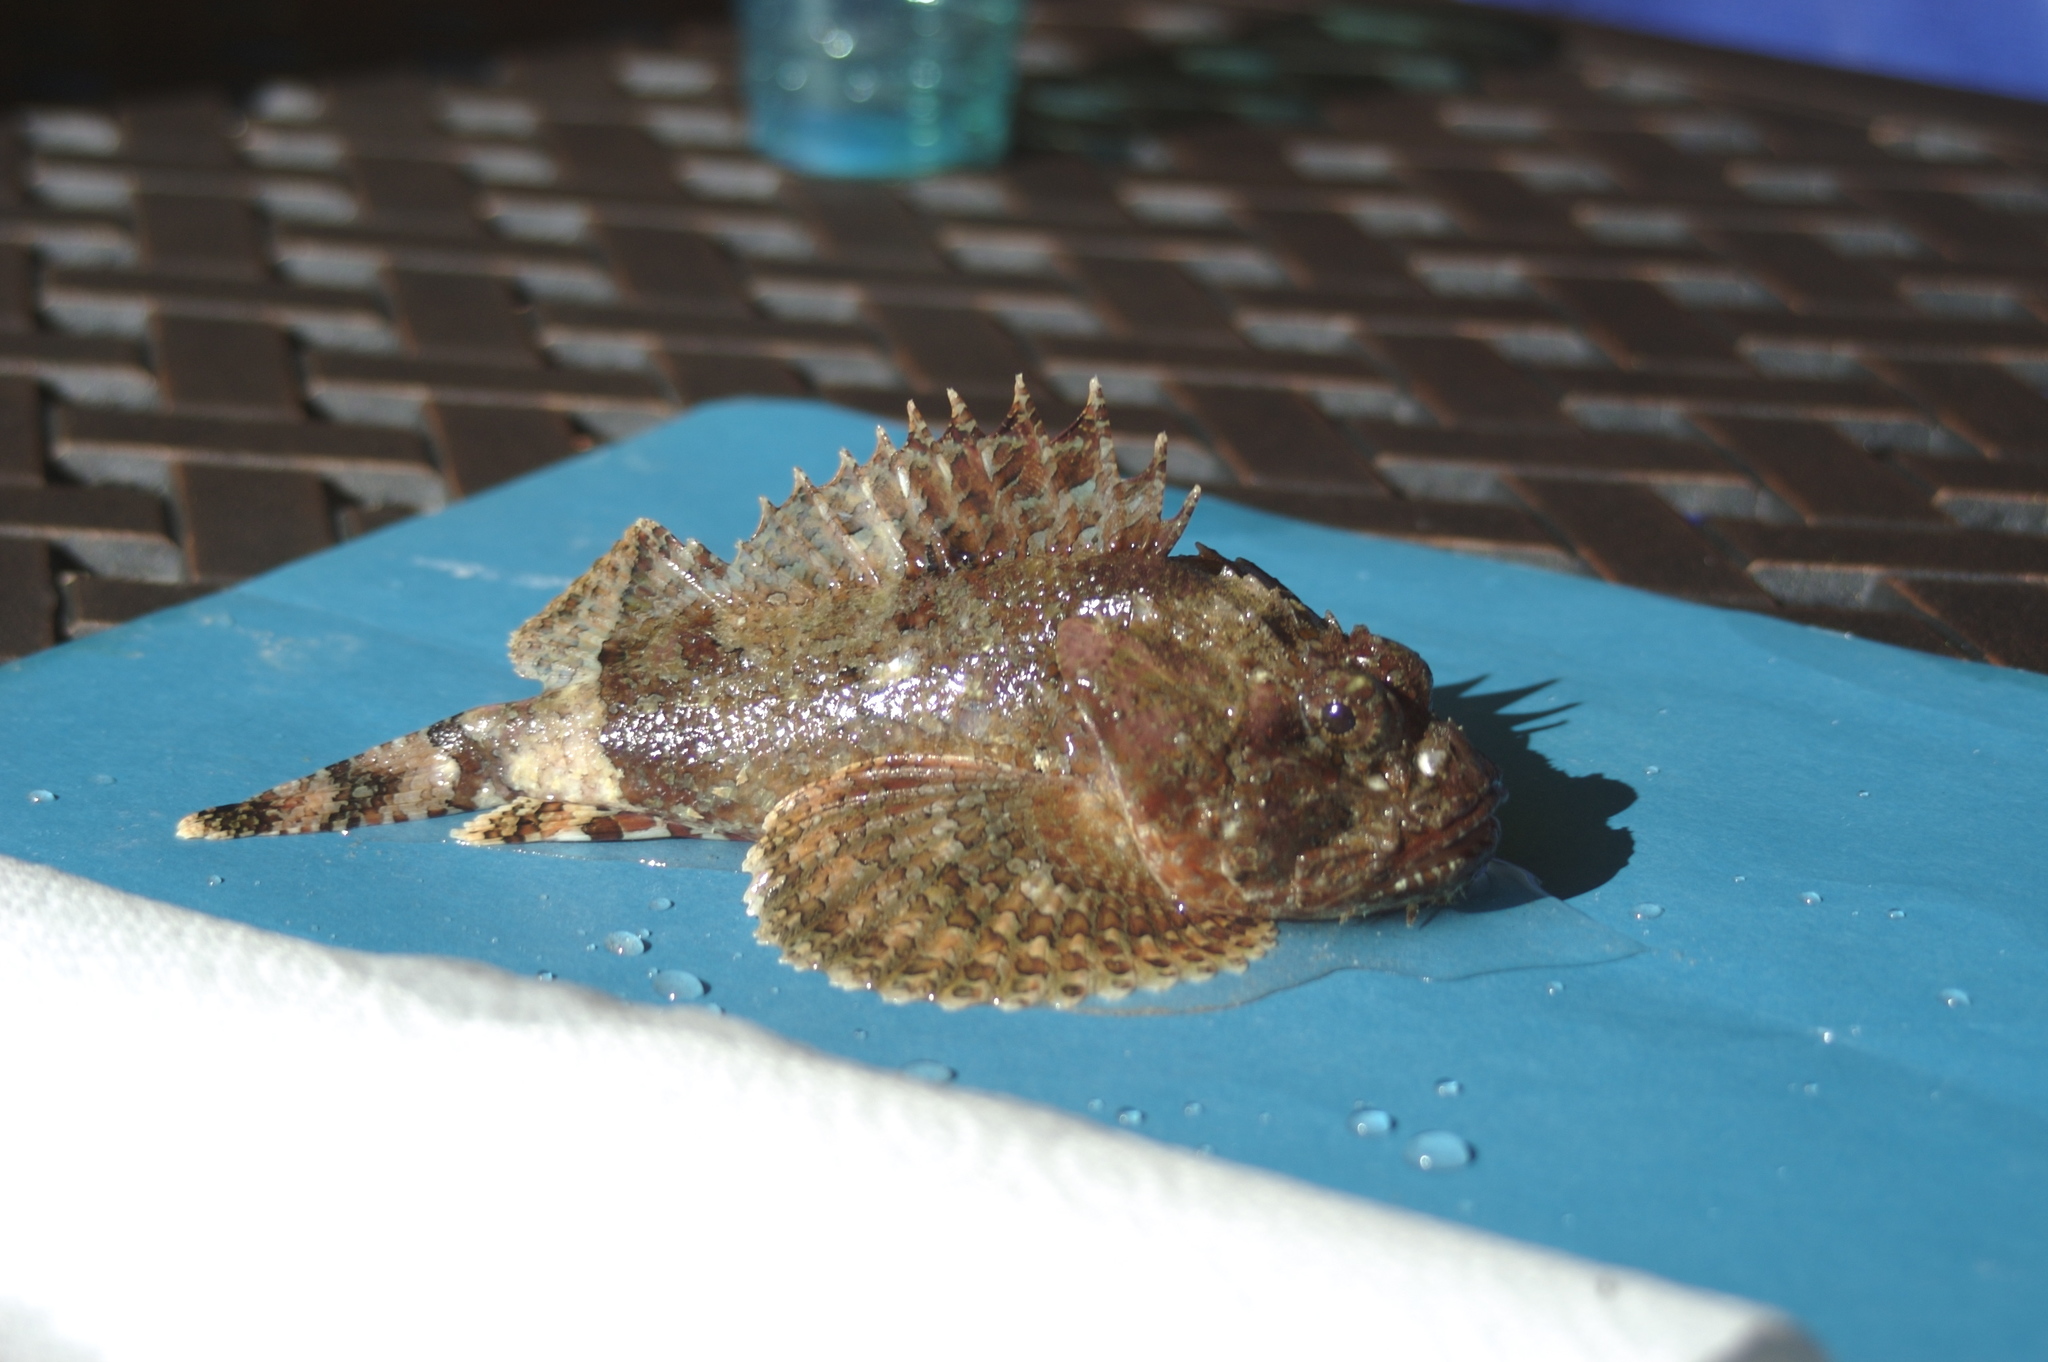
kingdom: Animalia
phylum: Chordata
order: Scorpaeniformes
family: Scorpaenidae
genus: Scorpaena
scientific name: Scorpaena guttata
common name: California scorpionfish
